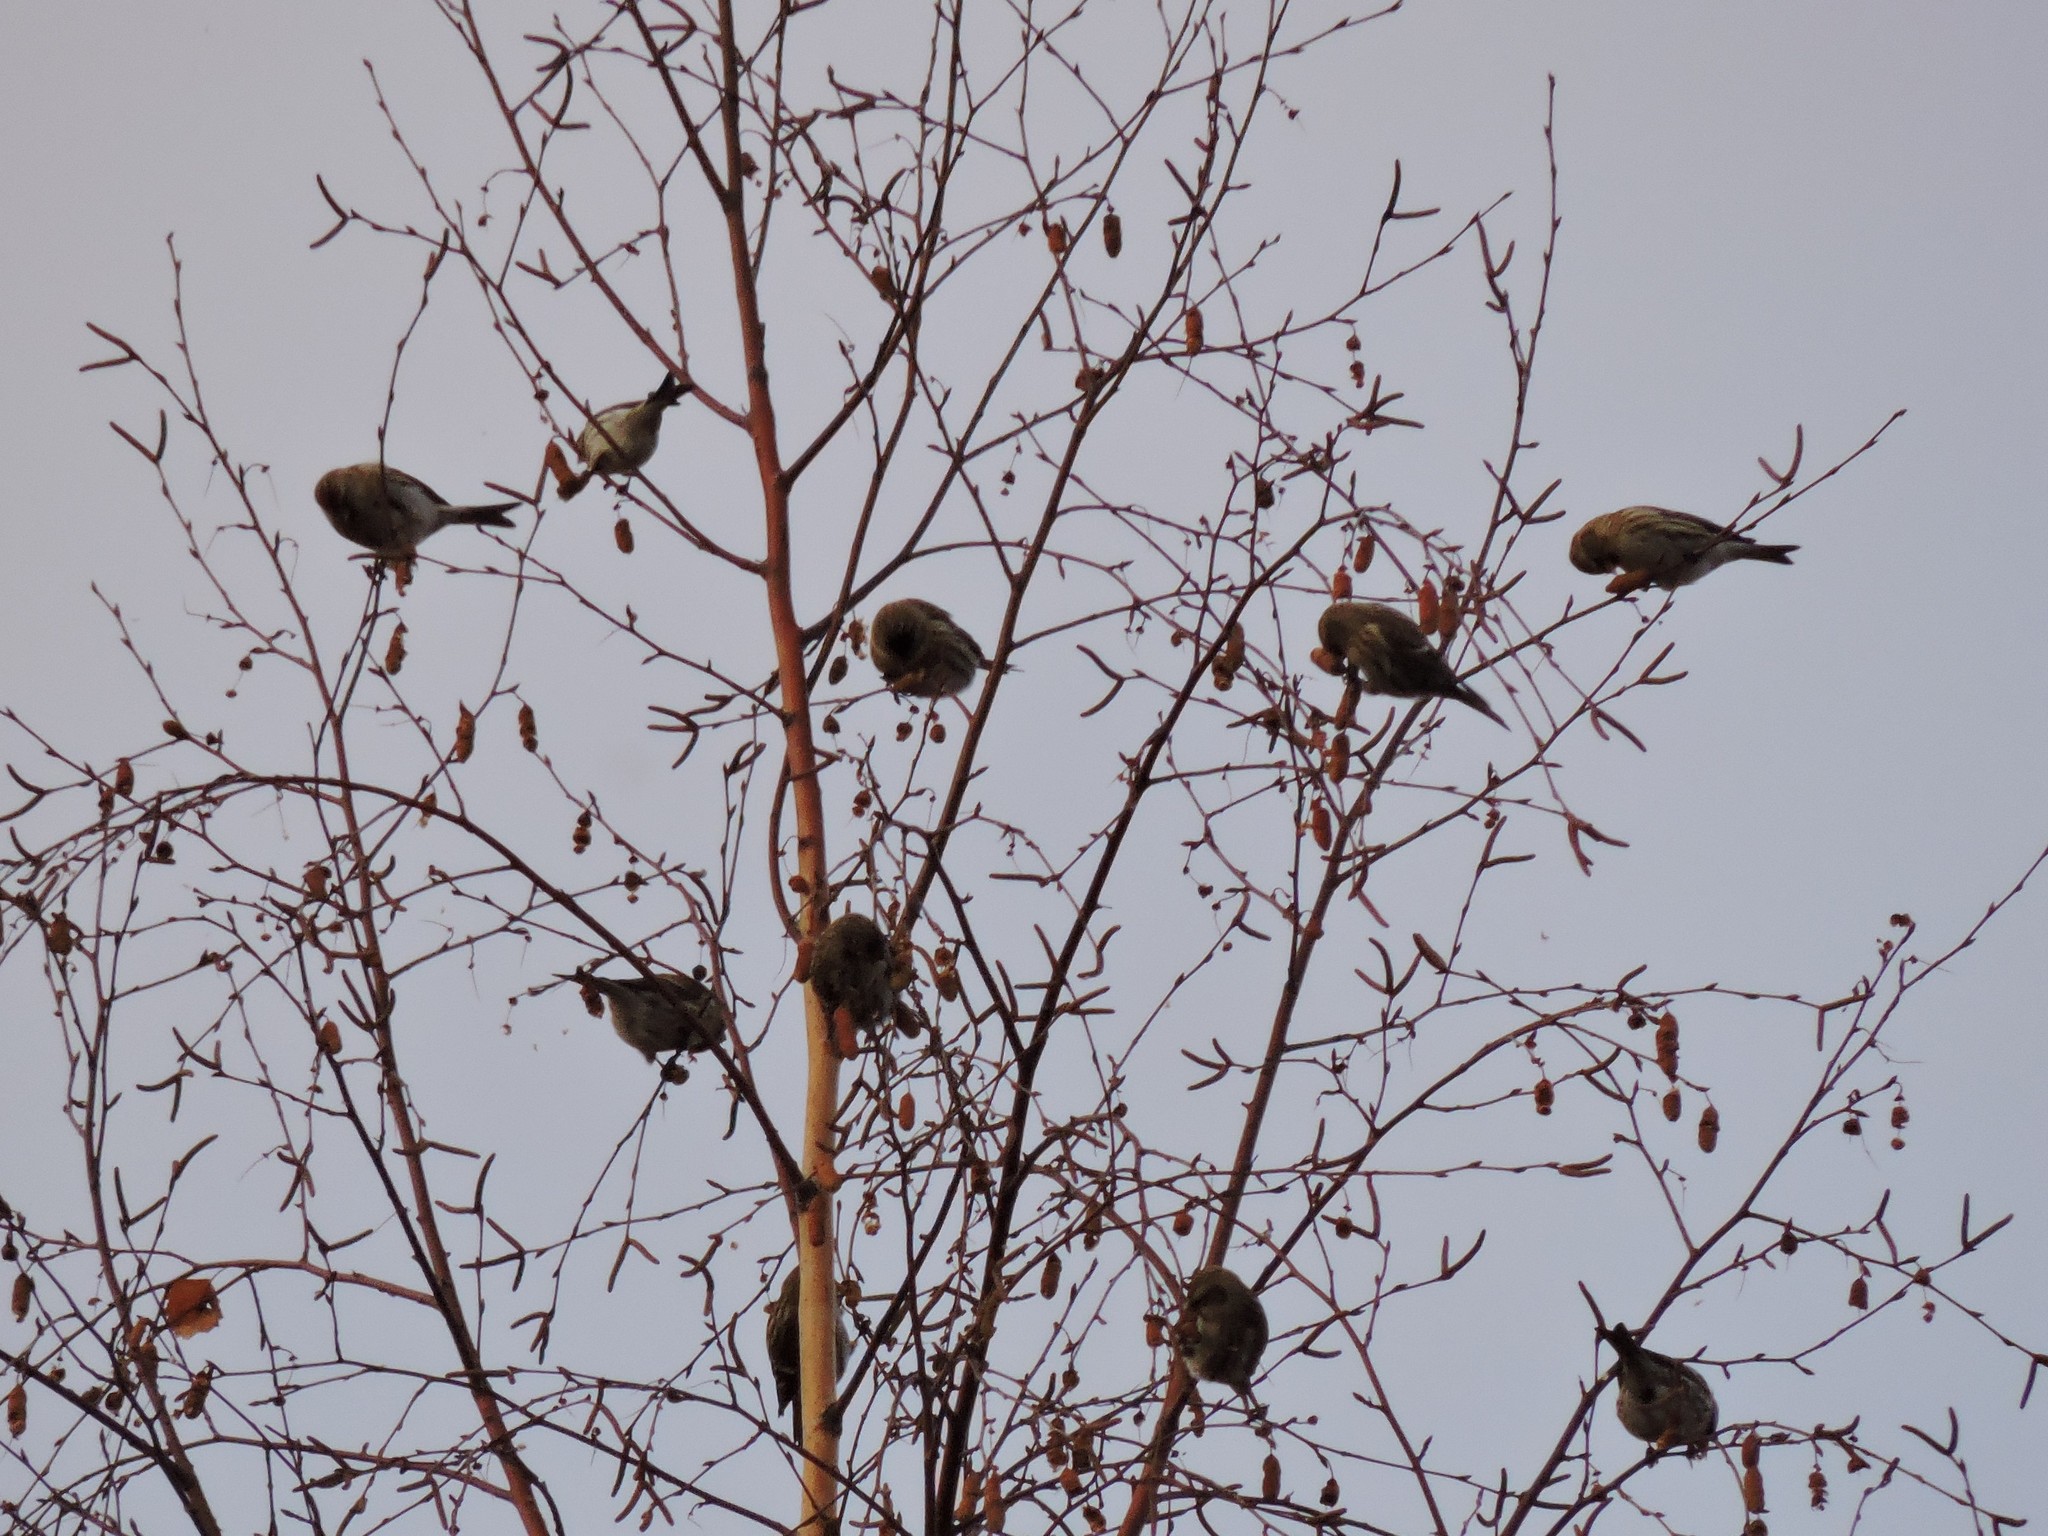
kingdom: Animalia
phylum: Chordata
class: Aves
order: Passeriformes
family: Fringillidae
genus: Acanthis
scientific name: Acanthis flammea
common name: Common redpoll
